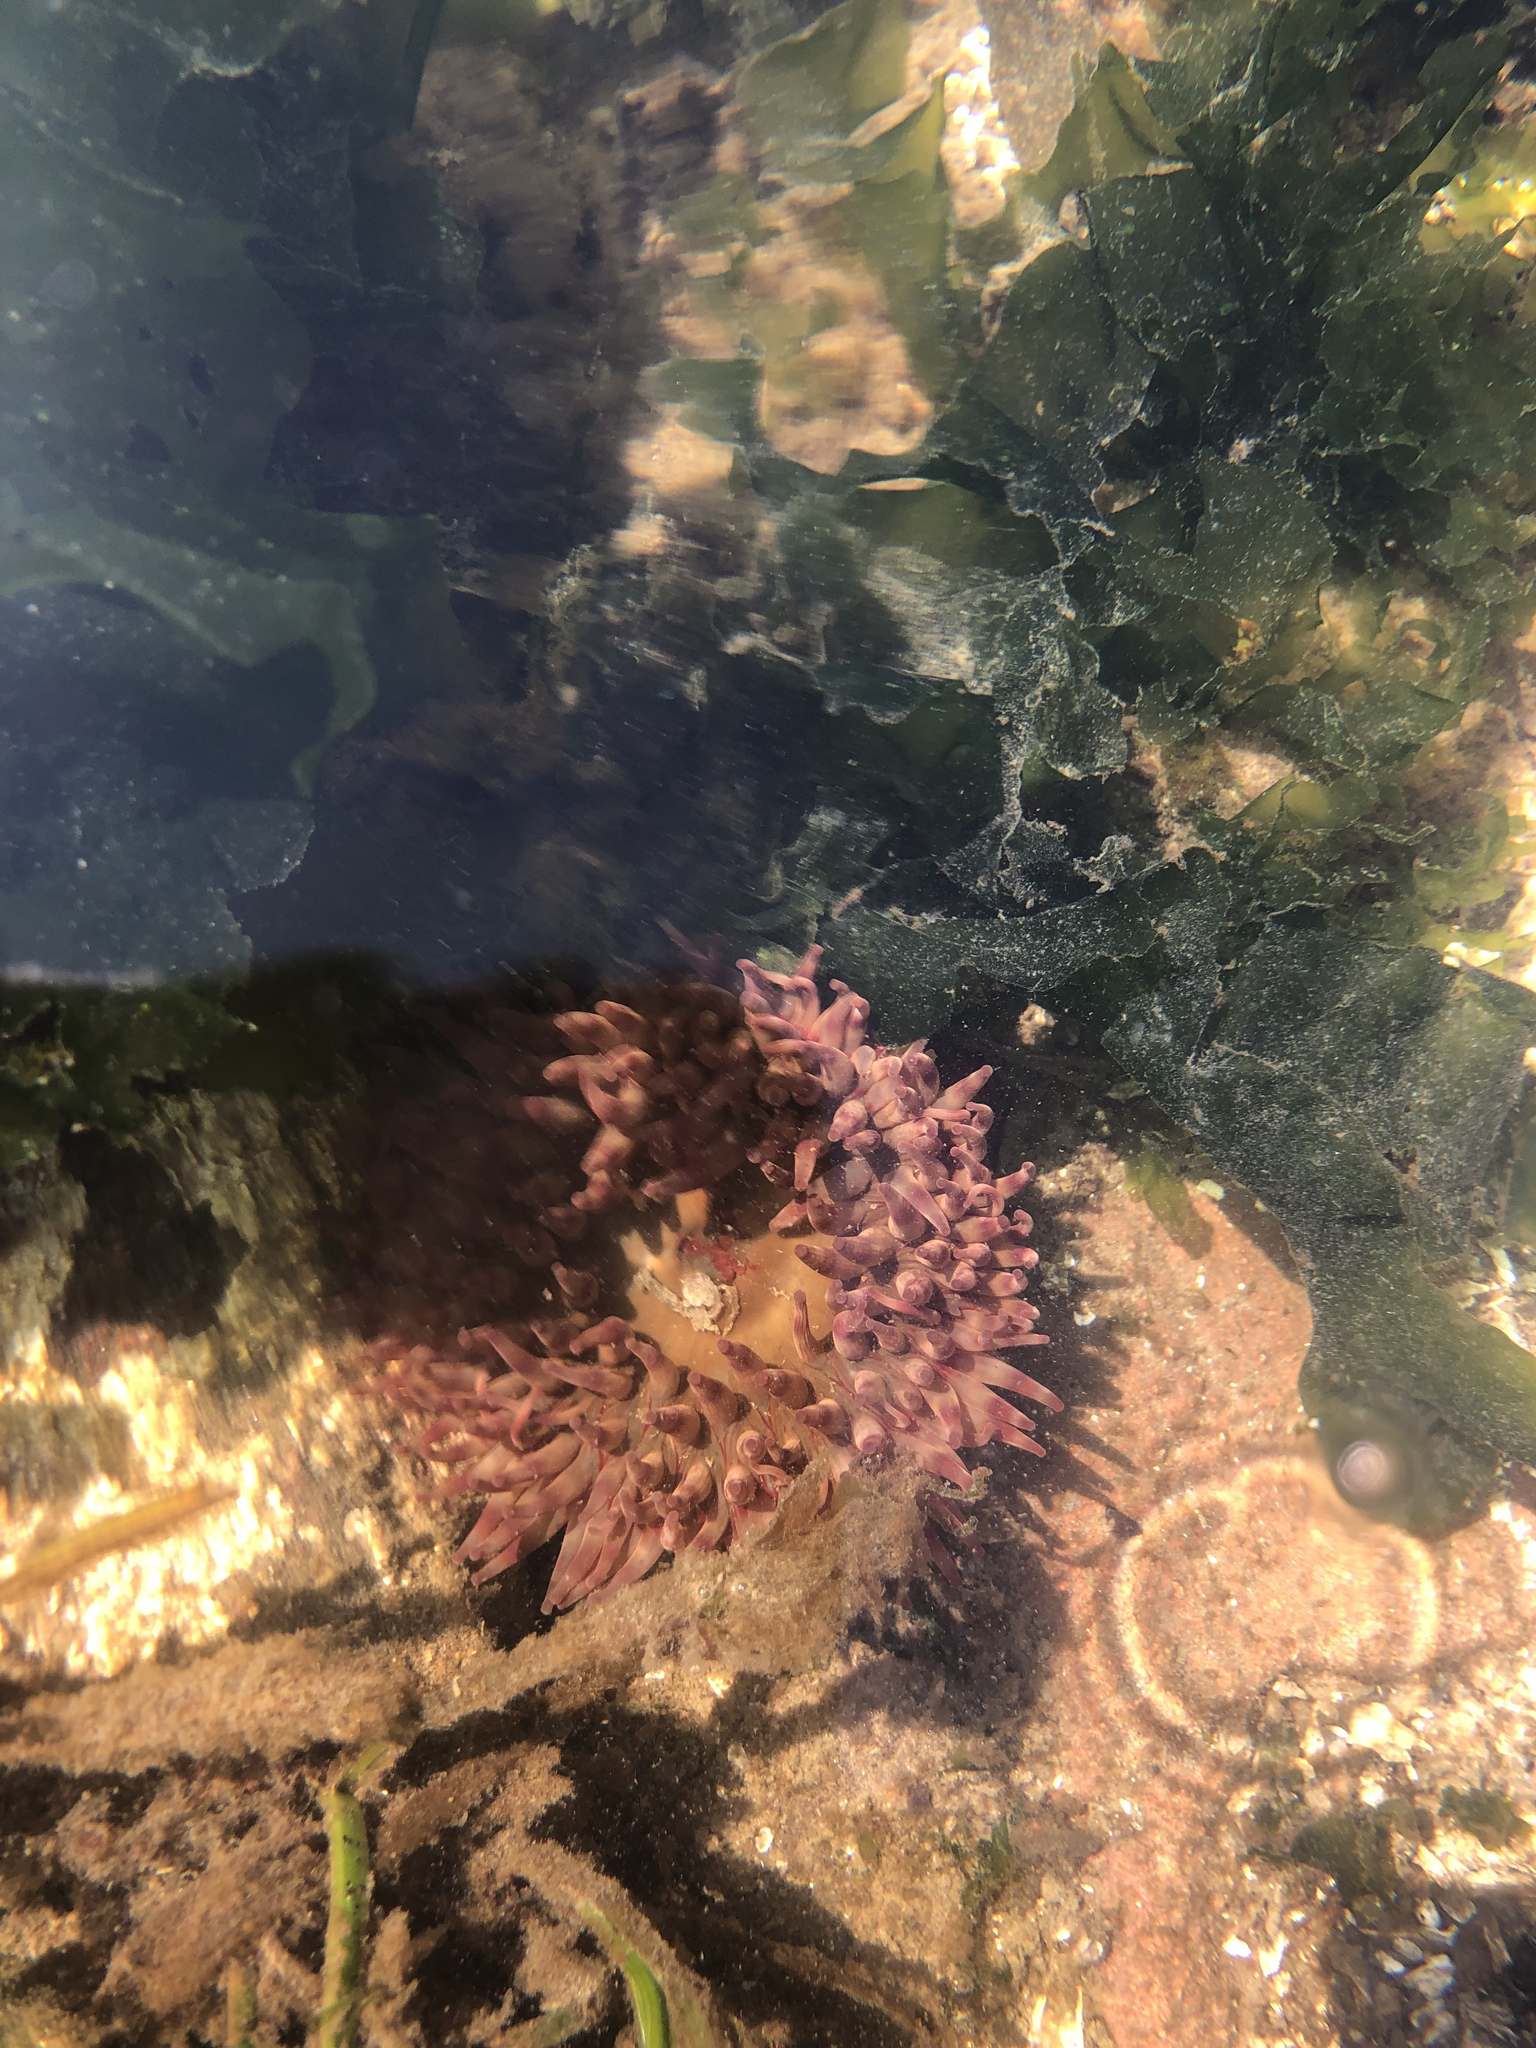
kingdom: Animalia
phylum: Cnidaria
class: Anthozoa
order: Actiniaria
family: Actiniidae
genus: Urticina
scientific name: Urticina grebelnyi
